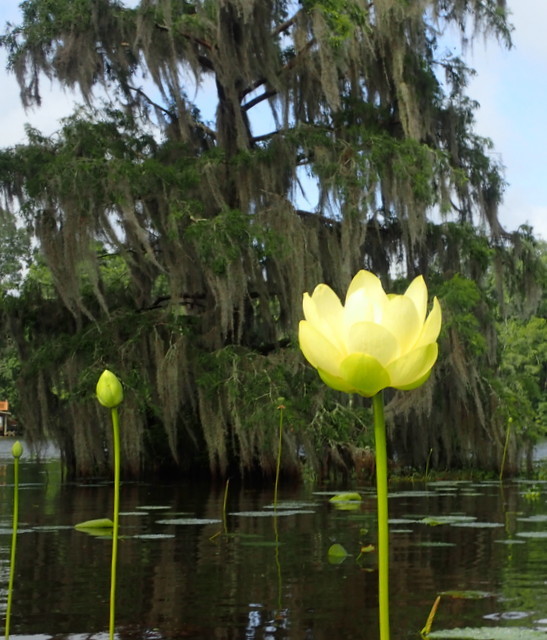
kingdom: Plantae
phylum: Tracheophyta
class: Magnoliopsida
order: Proteales
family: Nelumbonaceae
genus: Nelumbo
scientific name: Nelumbo lutea
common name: American lotus
